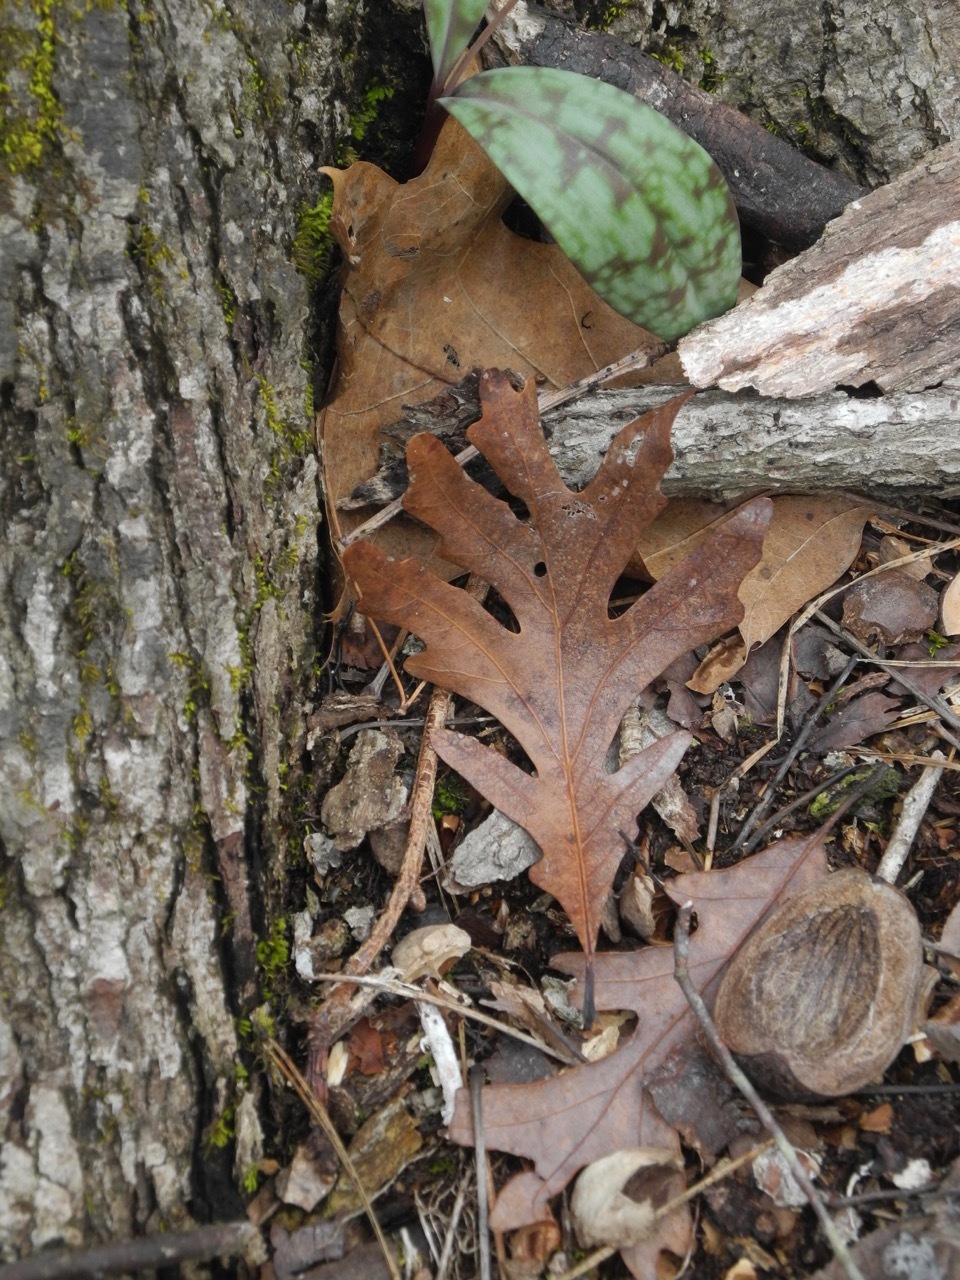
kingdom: Plantae
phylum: Tracheophyta
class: Magnoliopsida
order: Fagales
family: Fagaceae
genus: Quercus
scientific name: Quercus alba
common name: White oak
